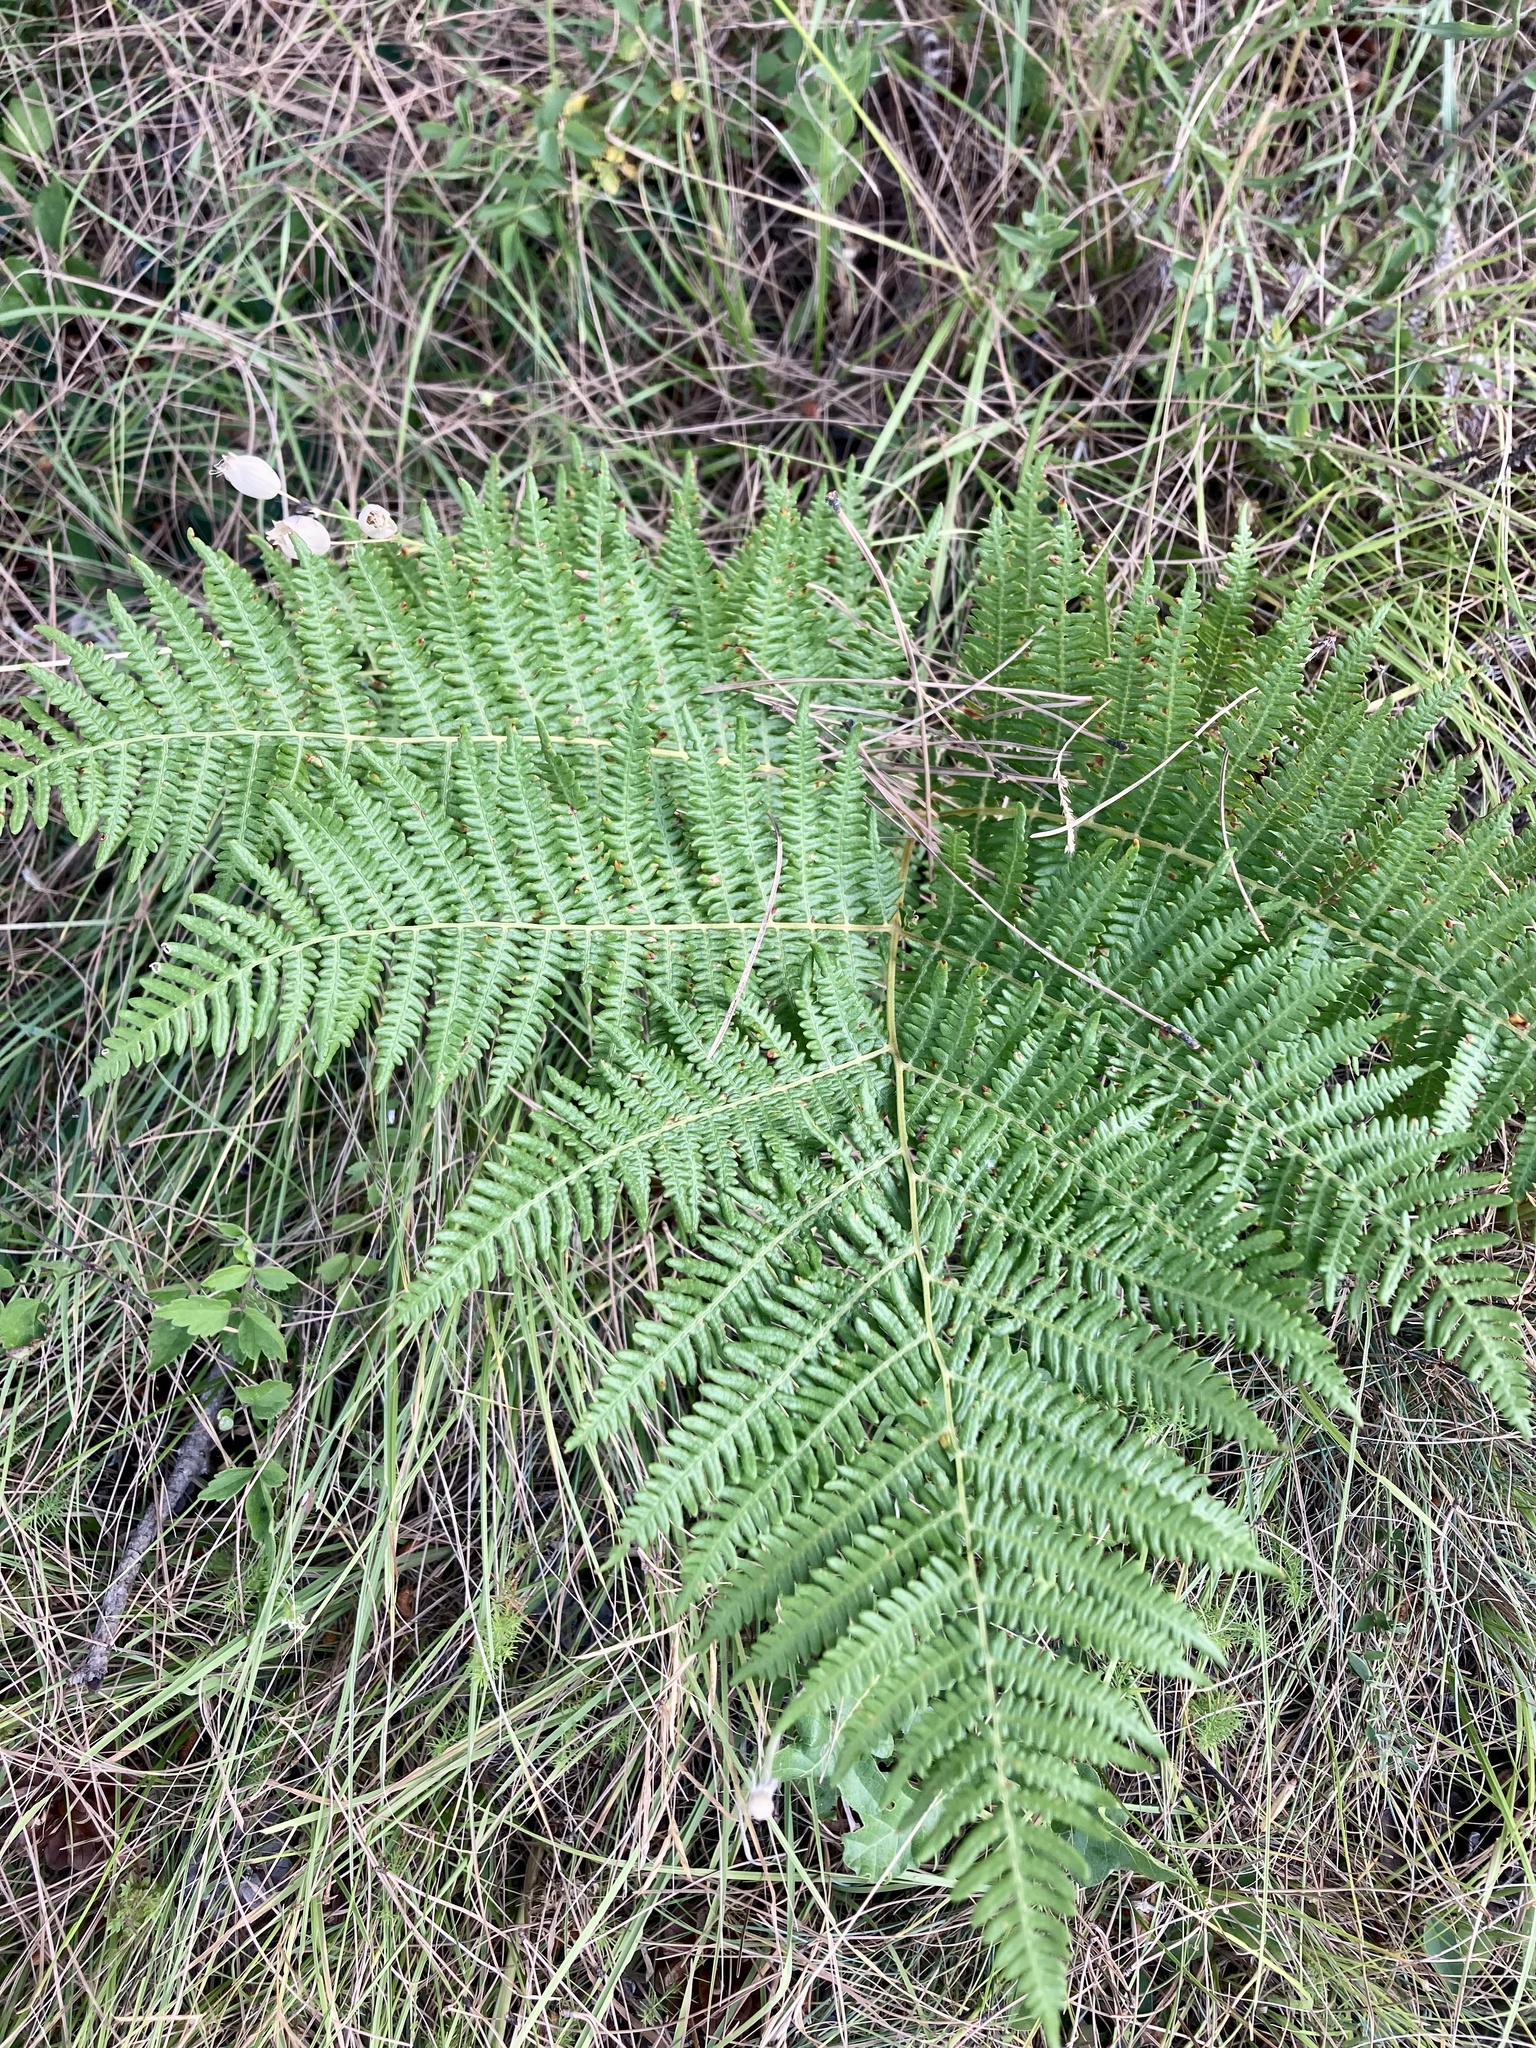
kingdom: Plantae
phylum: Tracheophyta
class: Polypodiopsida
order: Polypodiales
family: Dennstaedtiaceae
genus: Pteridium
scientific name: Pteridium aquilinum
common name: Bracken
